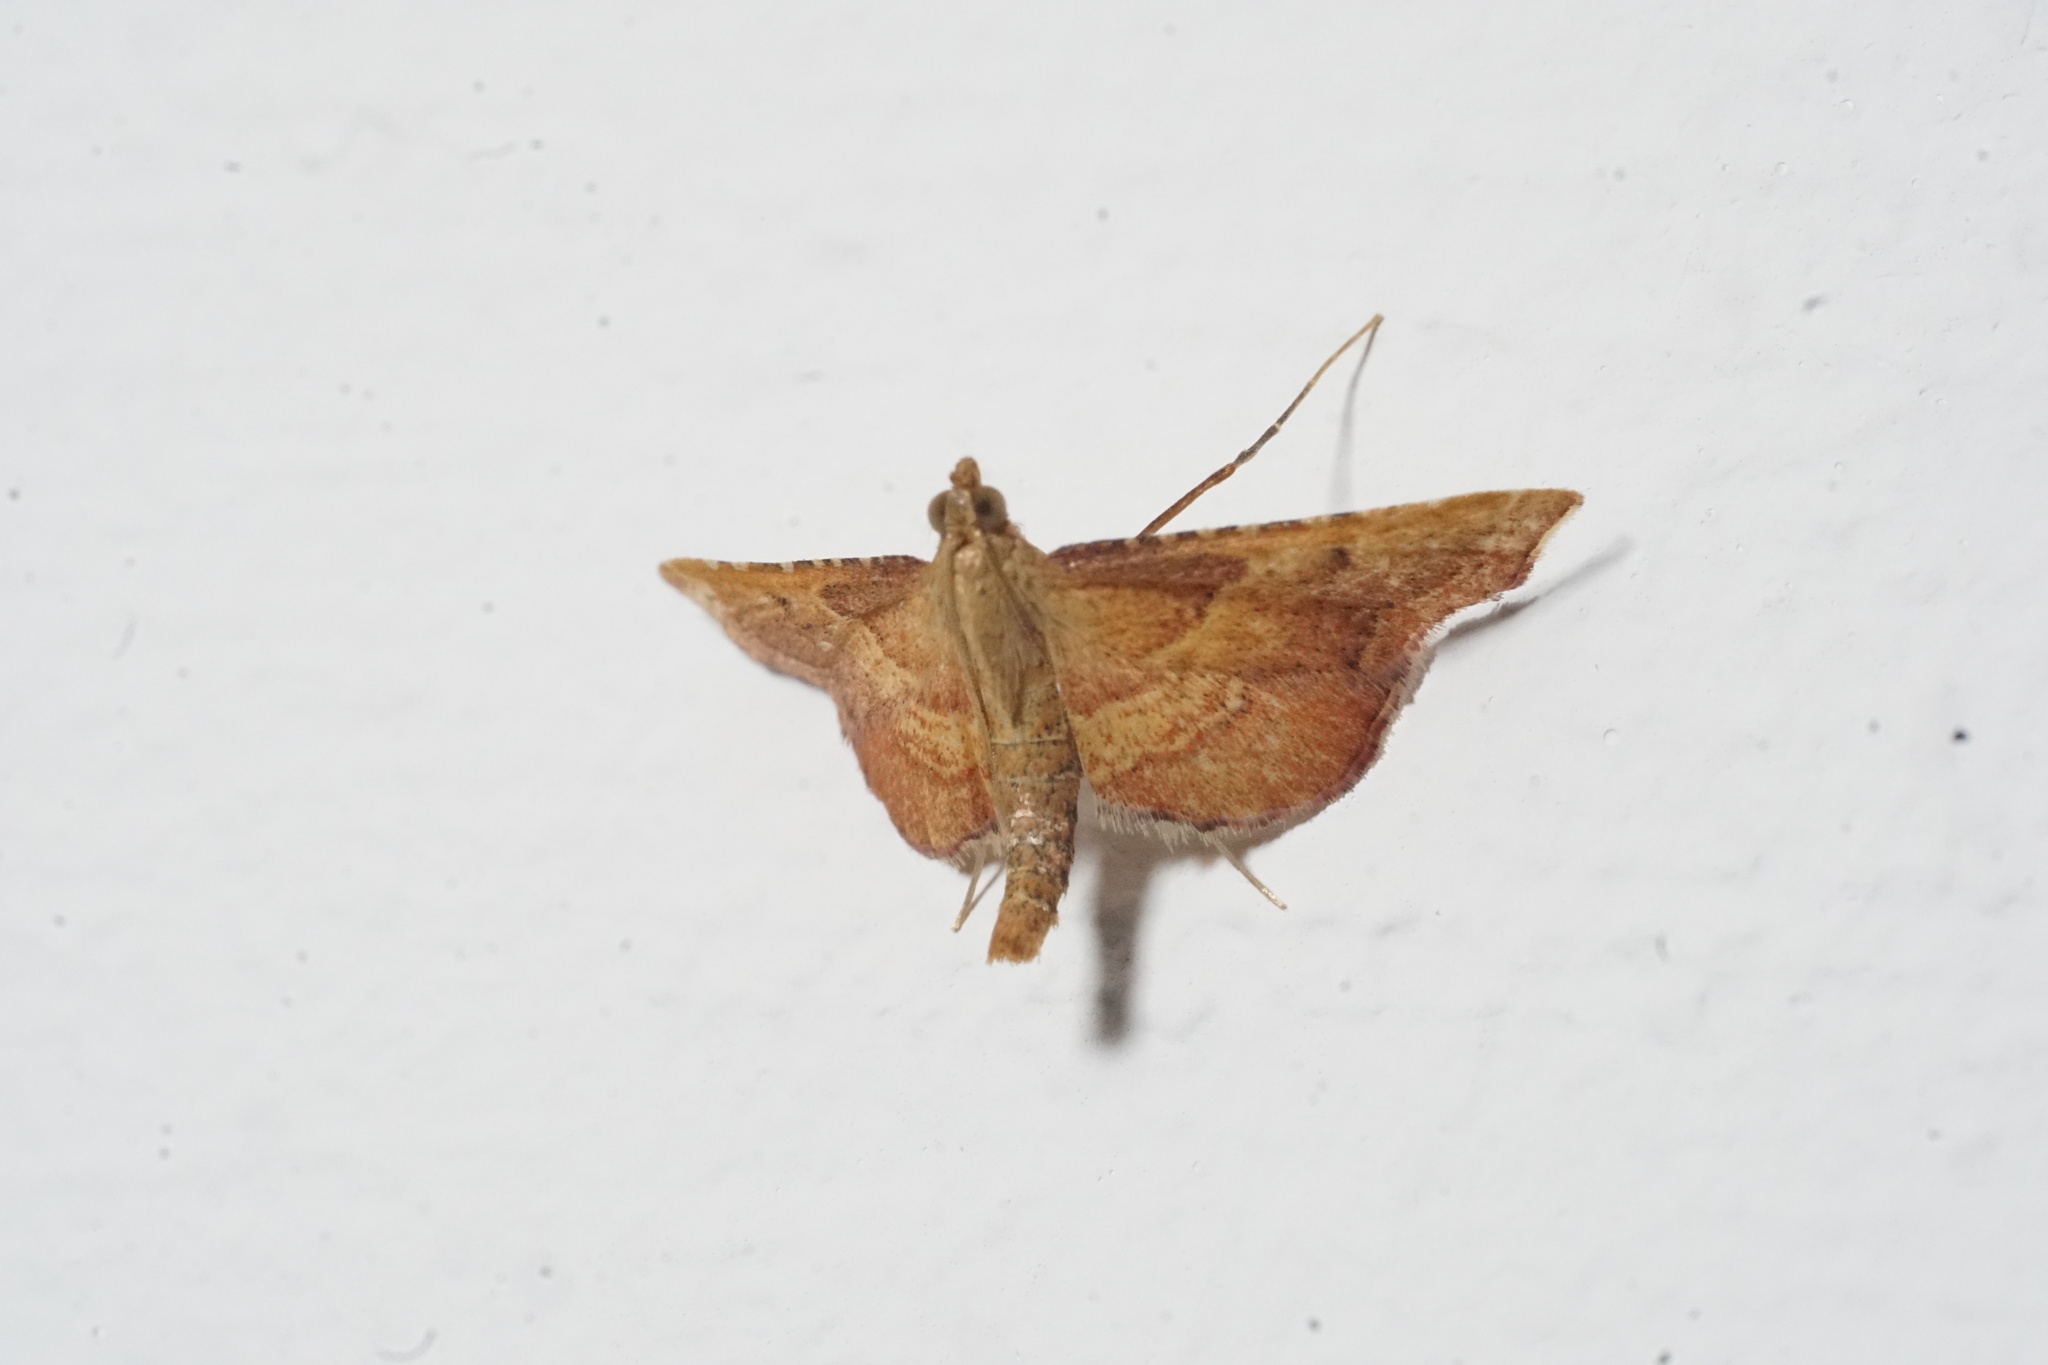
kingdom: Animalia
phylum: Arthropoda
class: Insecta
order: Lepidoptera
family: Pyralidae
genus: Endotricha
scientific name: Endotricha flammealis
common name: Rosy tabby
